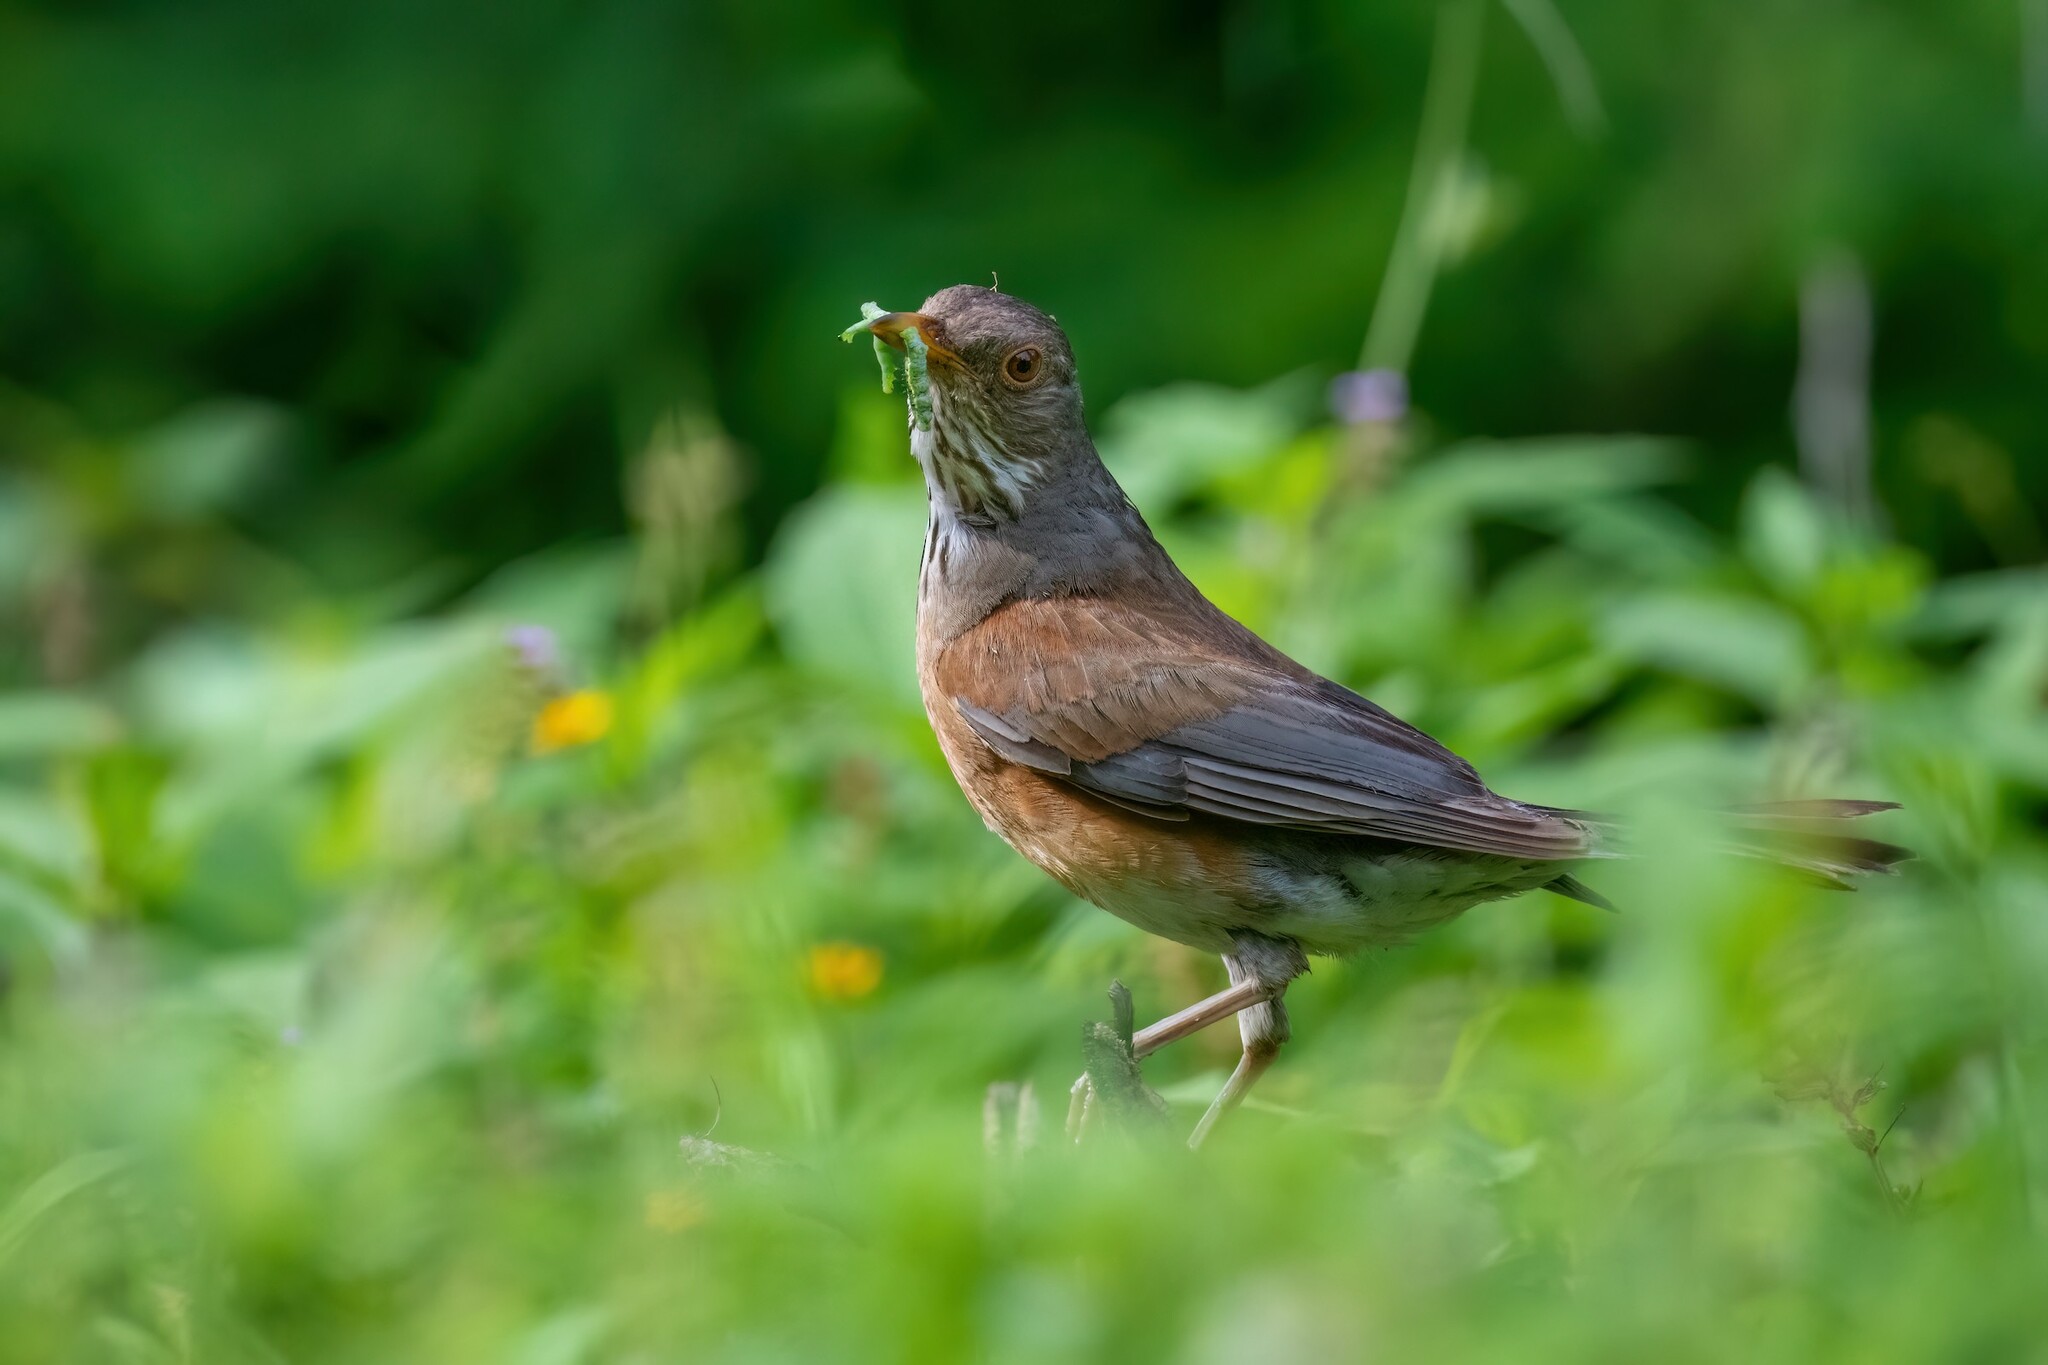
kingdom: Animalia
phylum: Chordata
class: Aves
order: Passeriformes
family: Turdidae
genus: Turdus
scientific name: Turdus rufopalliatus
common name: Rufous-backed robin
